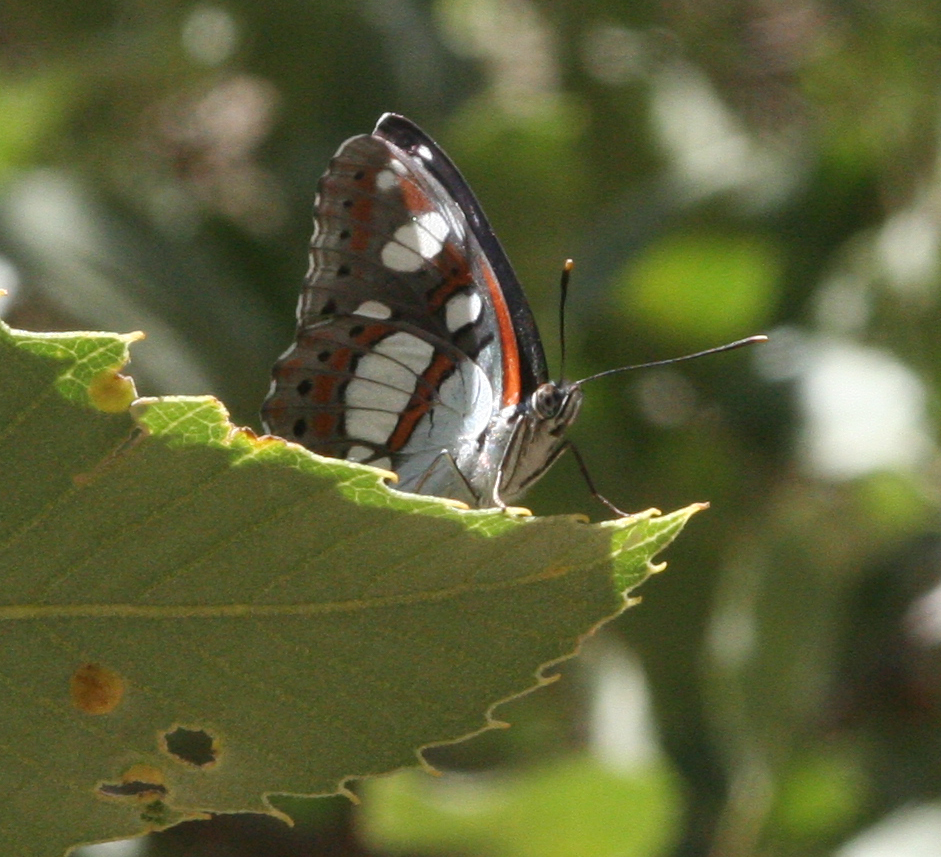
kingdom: Animalia
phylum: Arthropoda
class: Insecta
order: Lepidoptera
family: Nymphalidae
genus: Limenitis
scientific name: Limenitis reducta
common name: Southern white admiral
